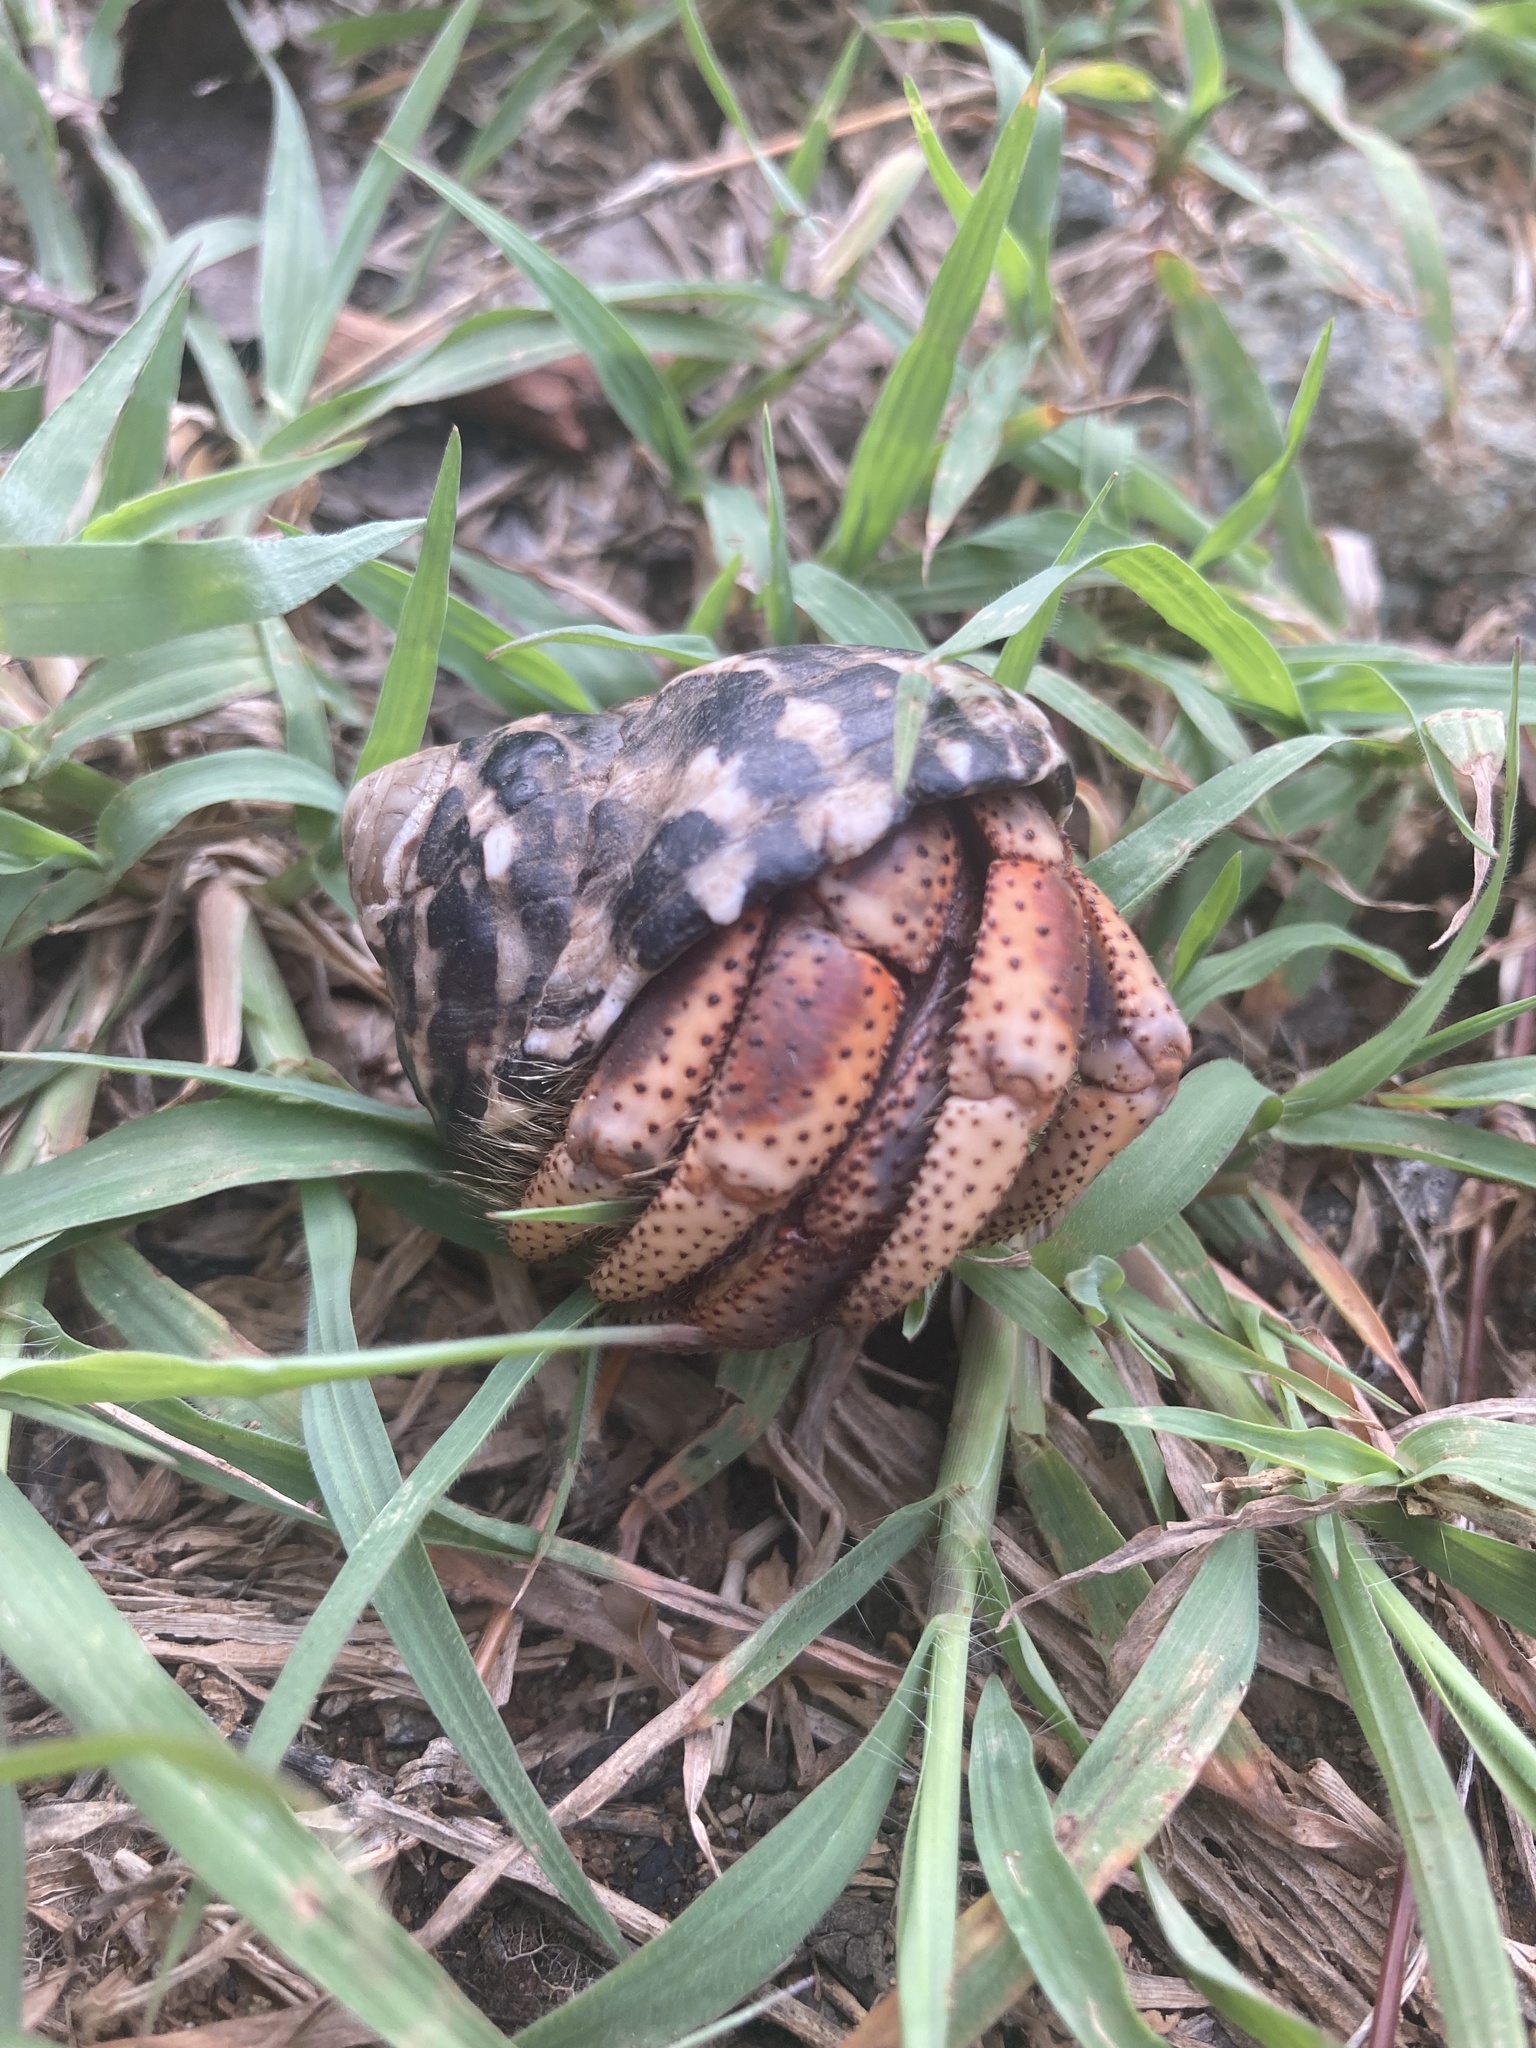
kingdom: Animalia
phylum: Arthropoda
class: Malacostraca
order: Decapoda
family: Coenobitidae
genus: Coenobita
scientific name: Coenobita clypeatus
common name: Caribbean hermit crab
